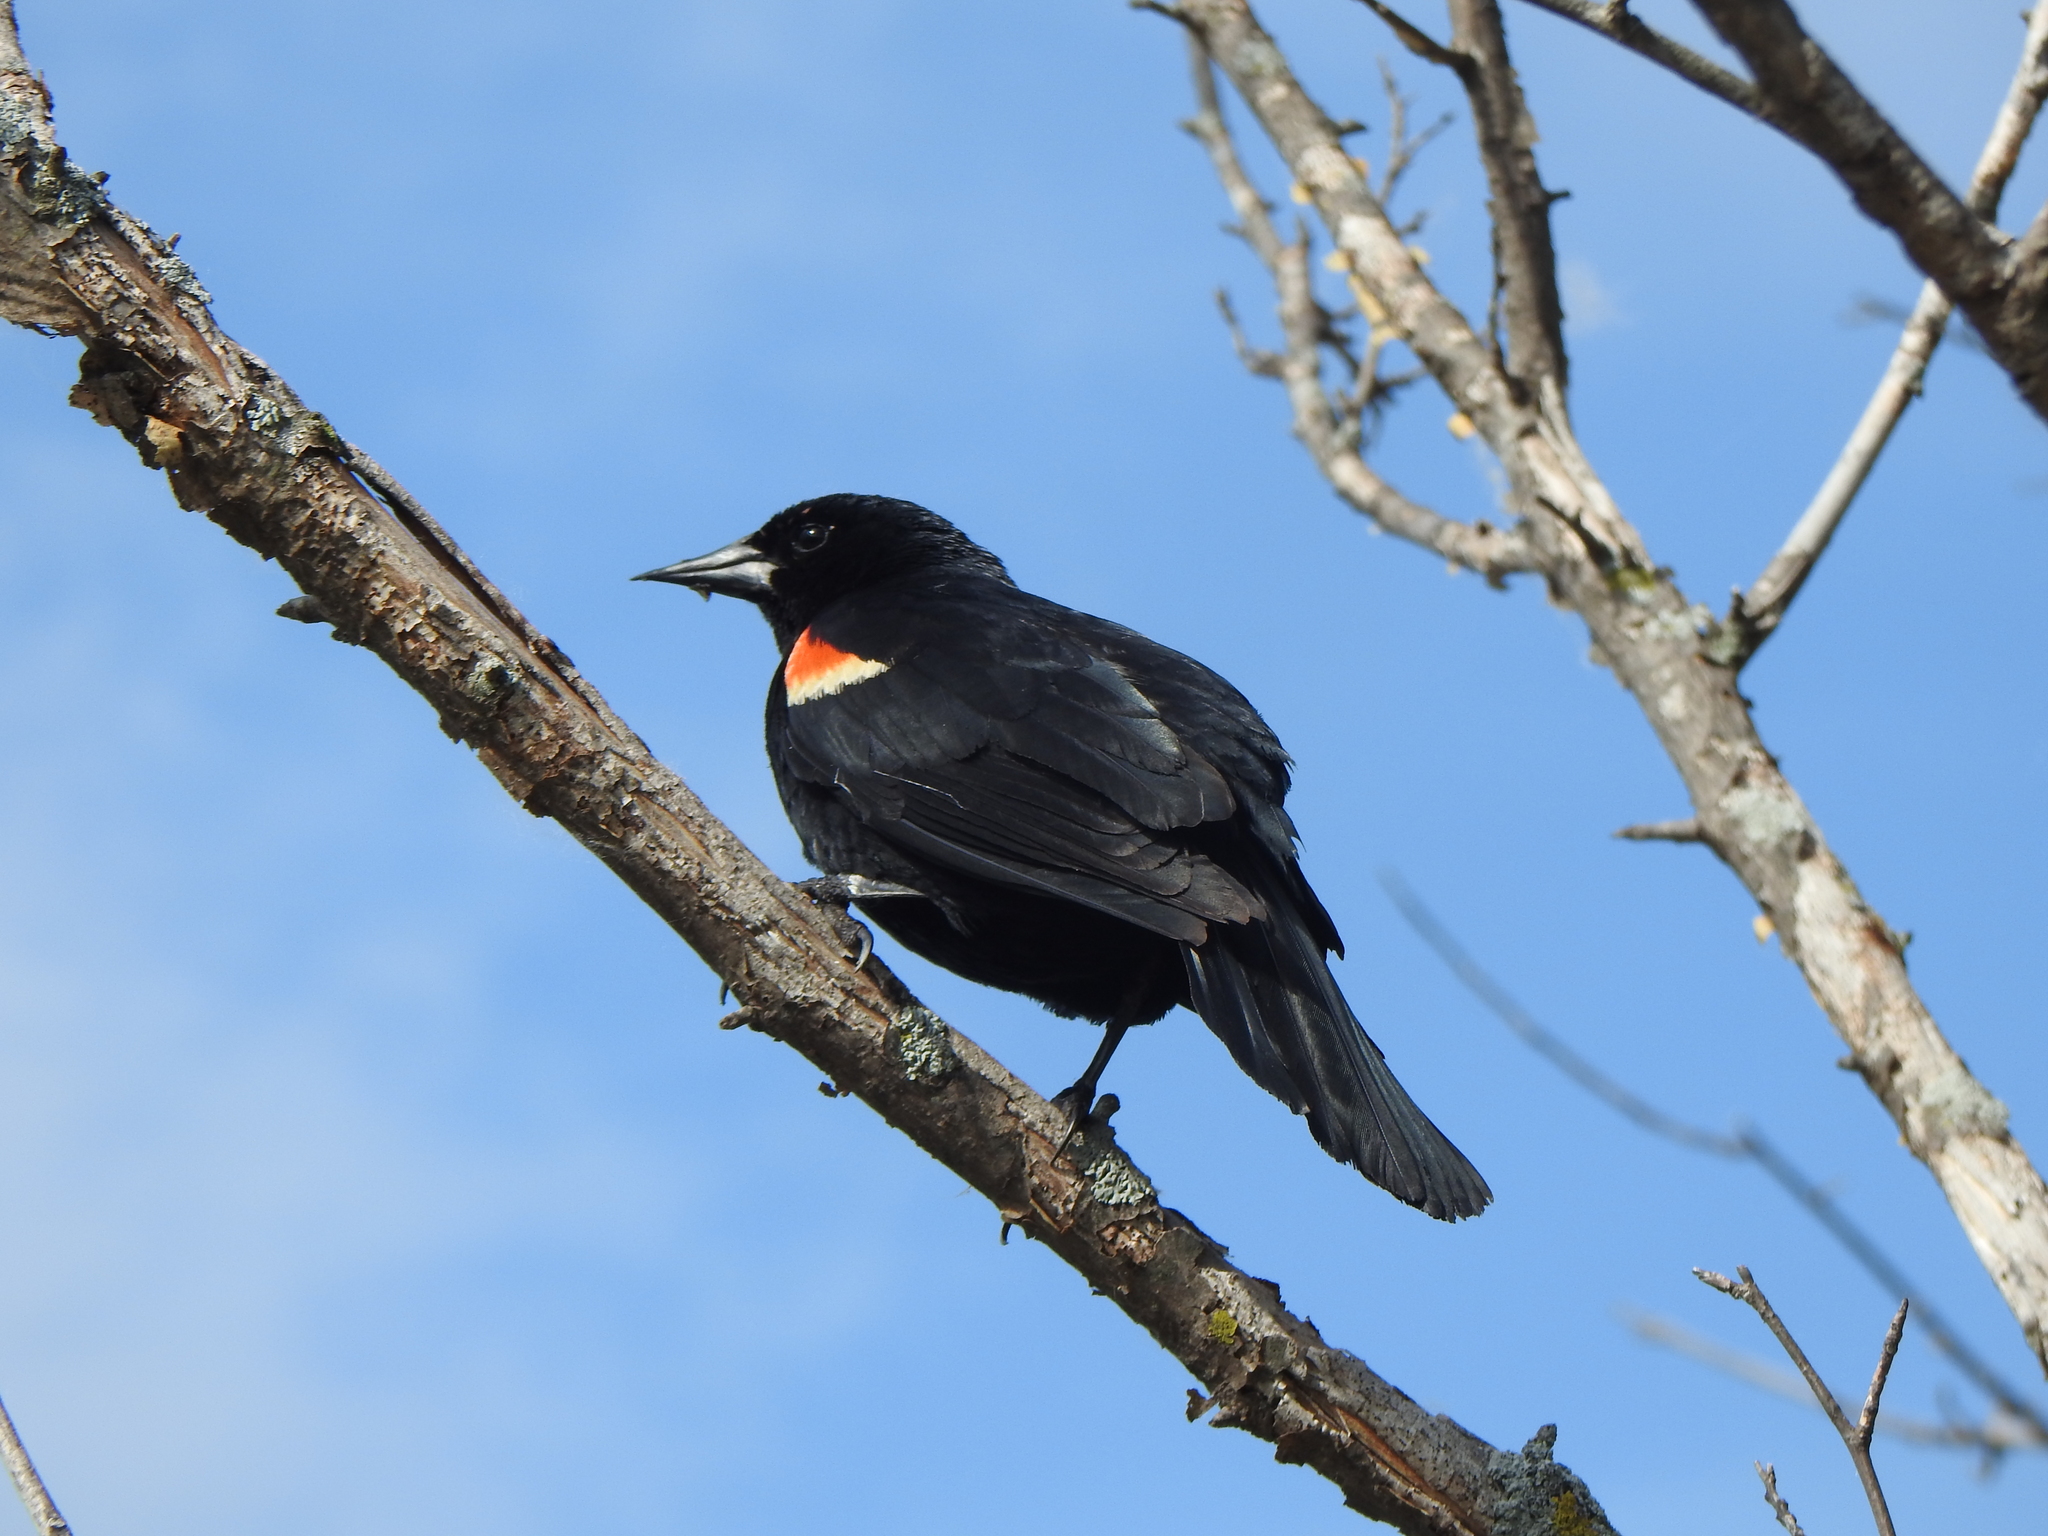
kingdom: Animalia
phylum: Chordata
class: Aves
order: Passeriformes
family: Icteridae
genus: Agelaius
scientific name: Agelaius phoeniceus
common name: Red-winged blackbird
